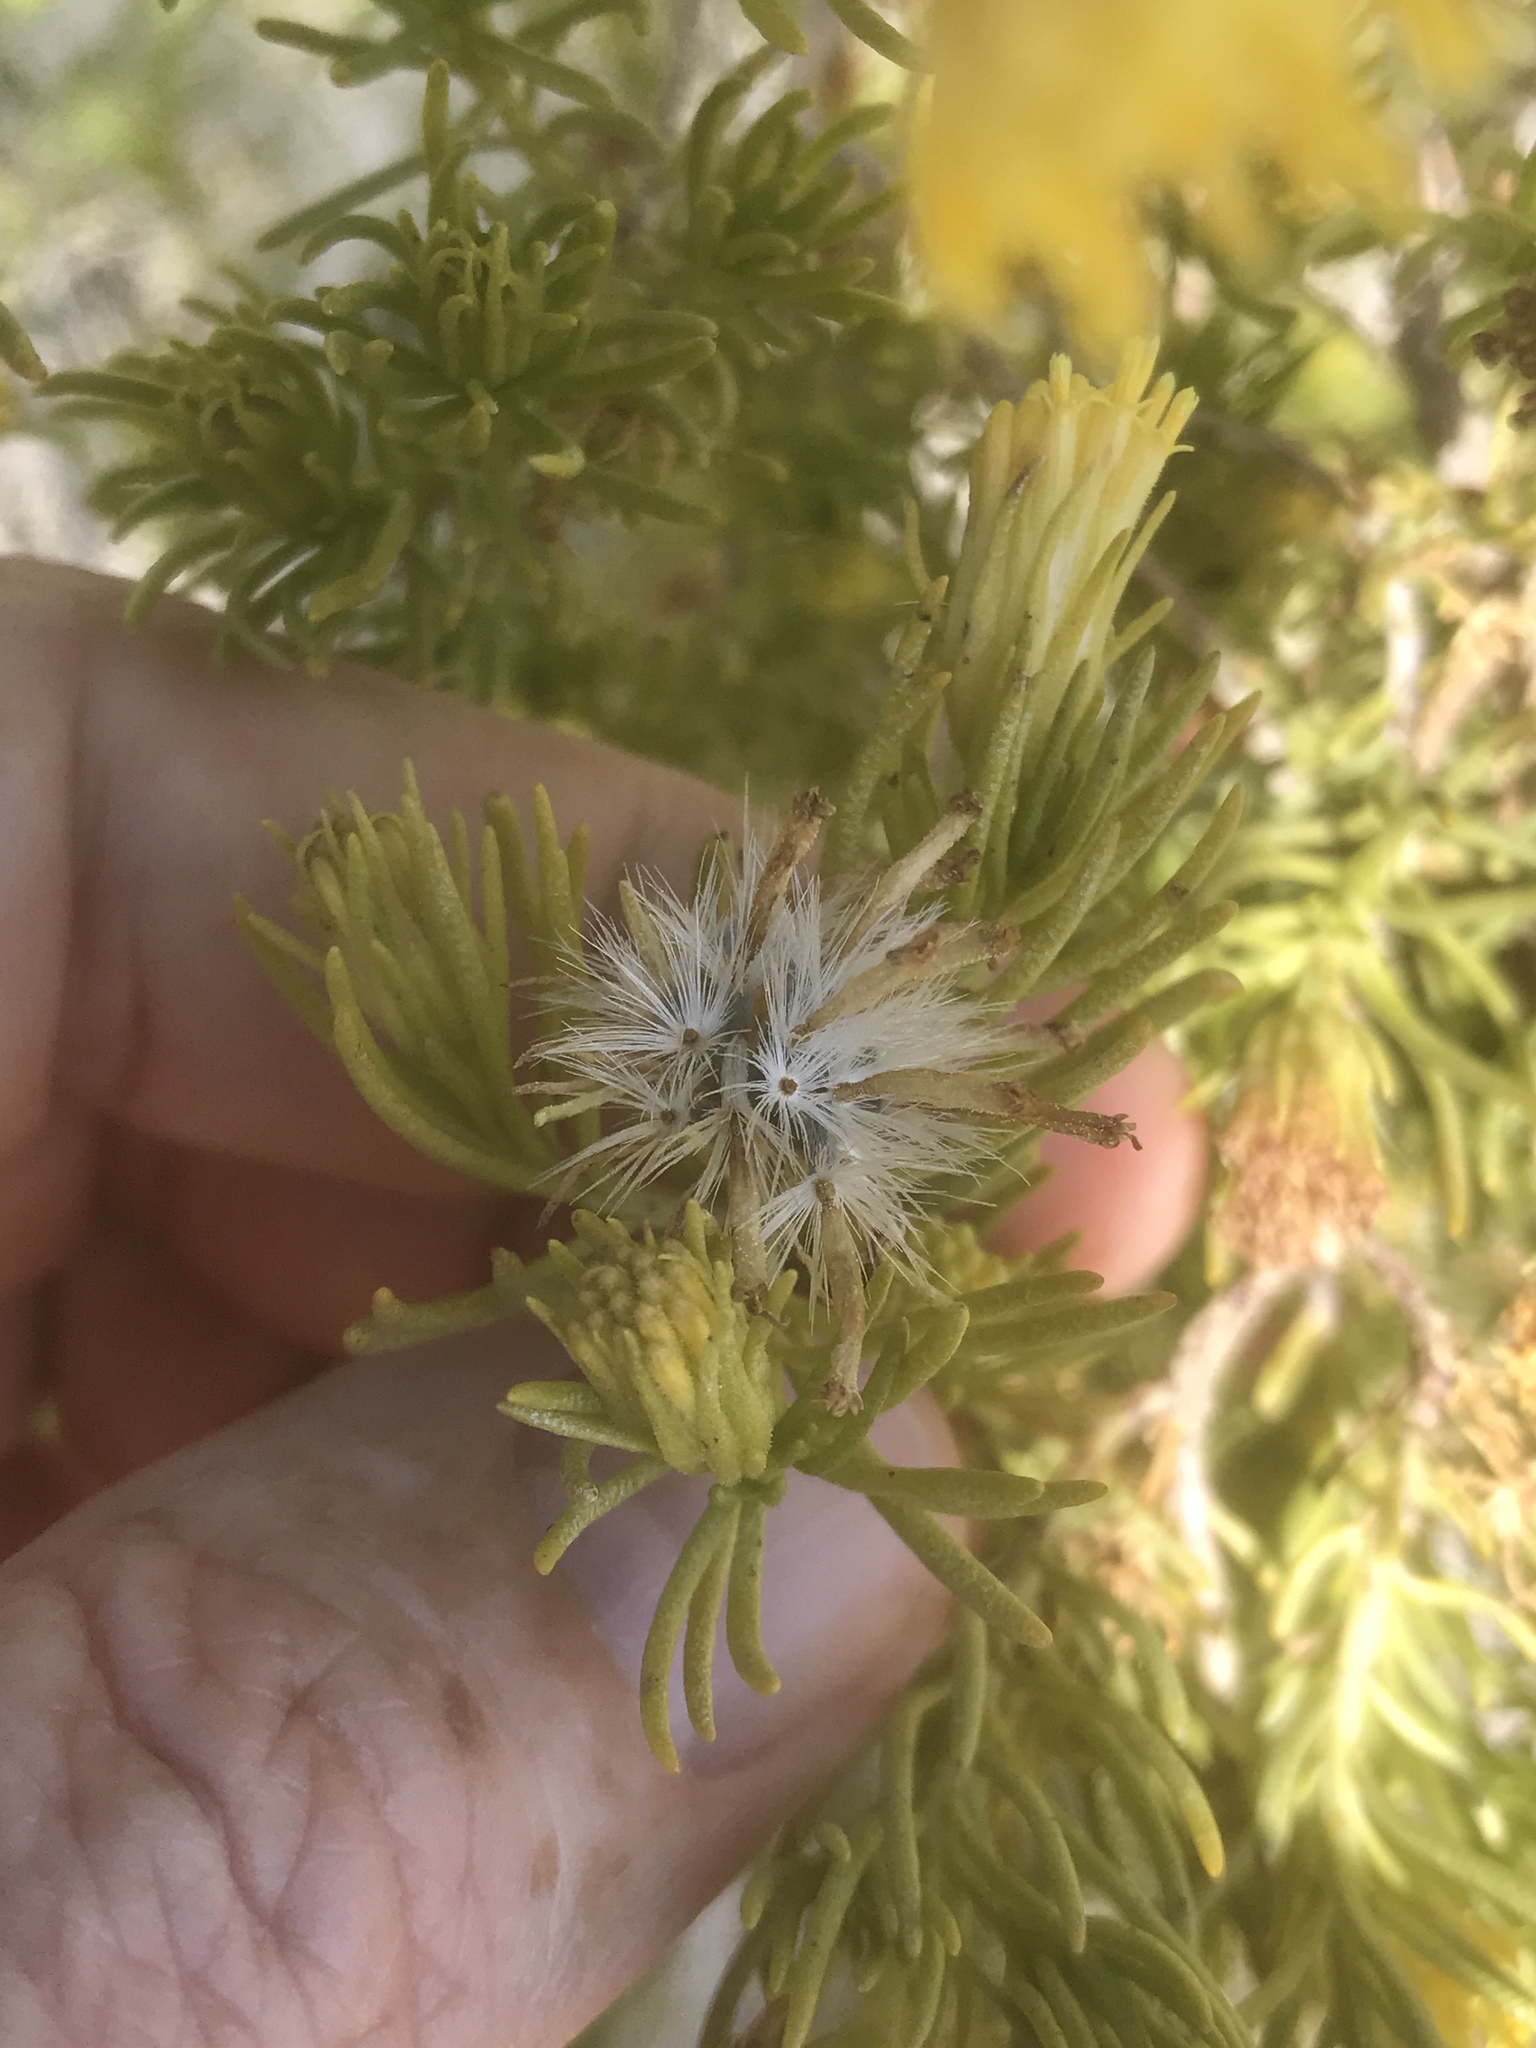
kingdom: Plantae
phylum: Tracheophyta
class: Magnoliopsida
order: Asterales
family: Asteraceae
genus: Peucephyllum
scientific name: Peucephyllum schottii
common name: Pygmy-cedar
